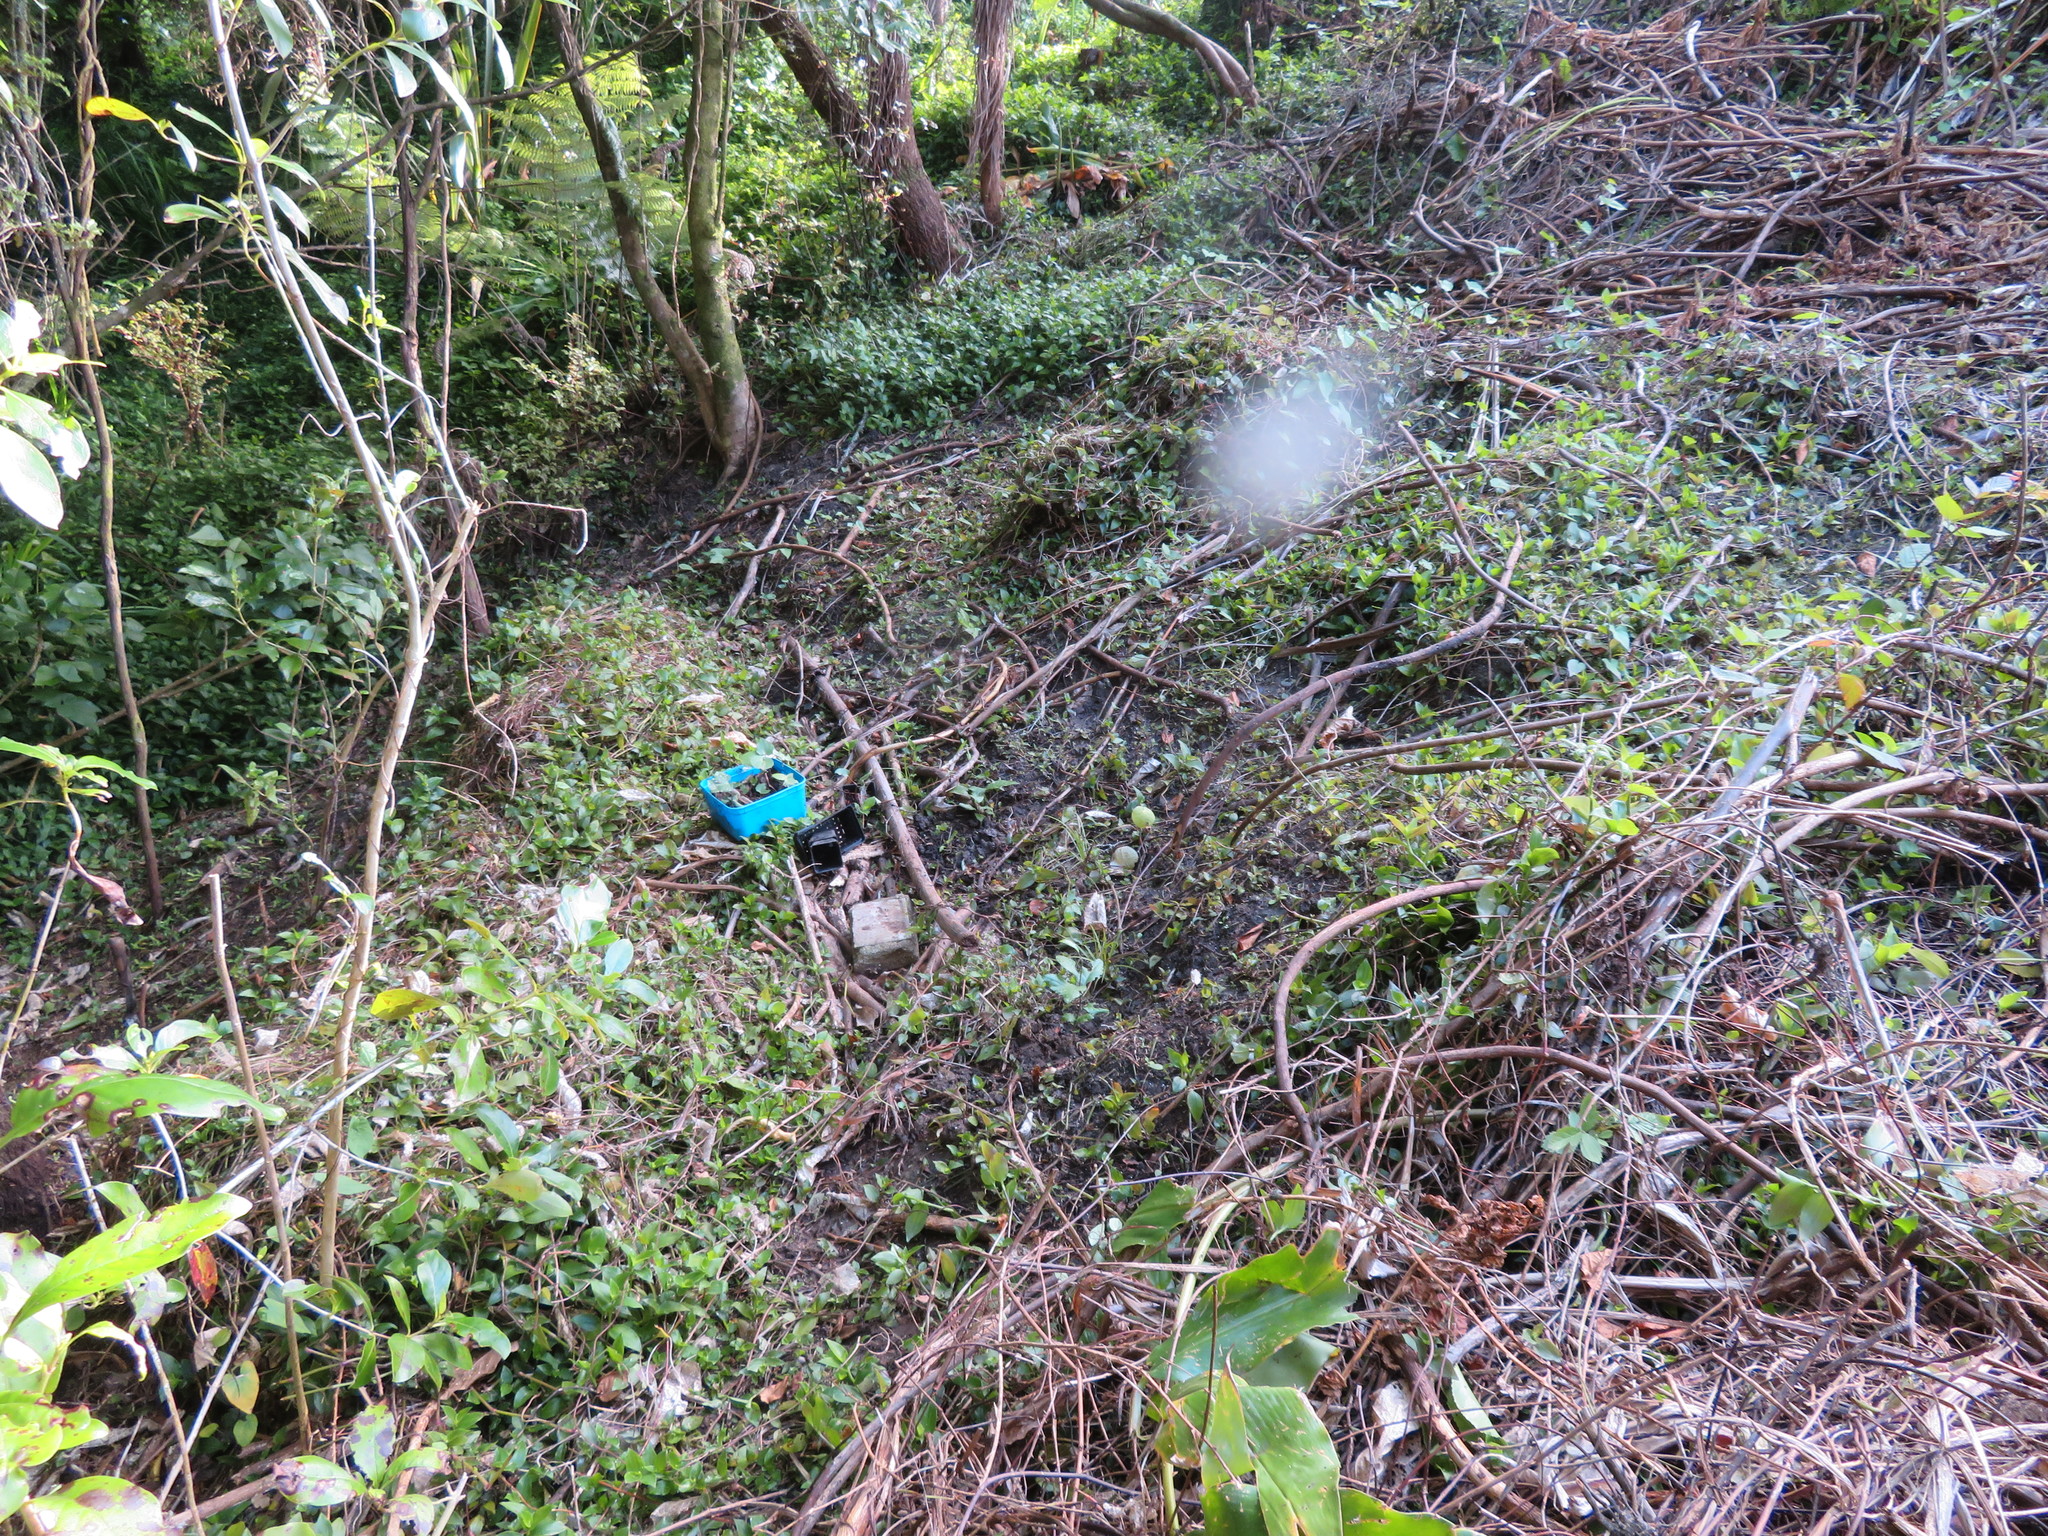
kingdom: Plantae
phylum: Tracheophyta
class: Liliopsida
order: Commelinales
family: Commelinaceae
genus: Tradescantia
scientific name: Tradescantia fluminensis
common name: Wandering-jew
